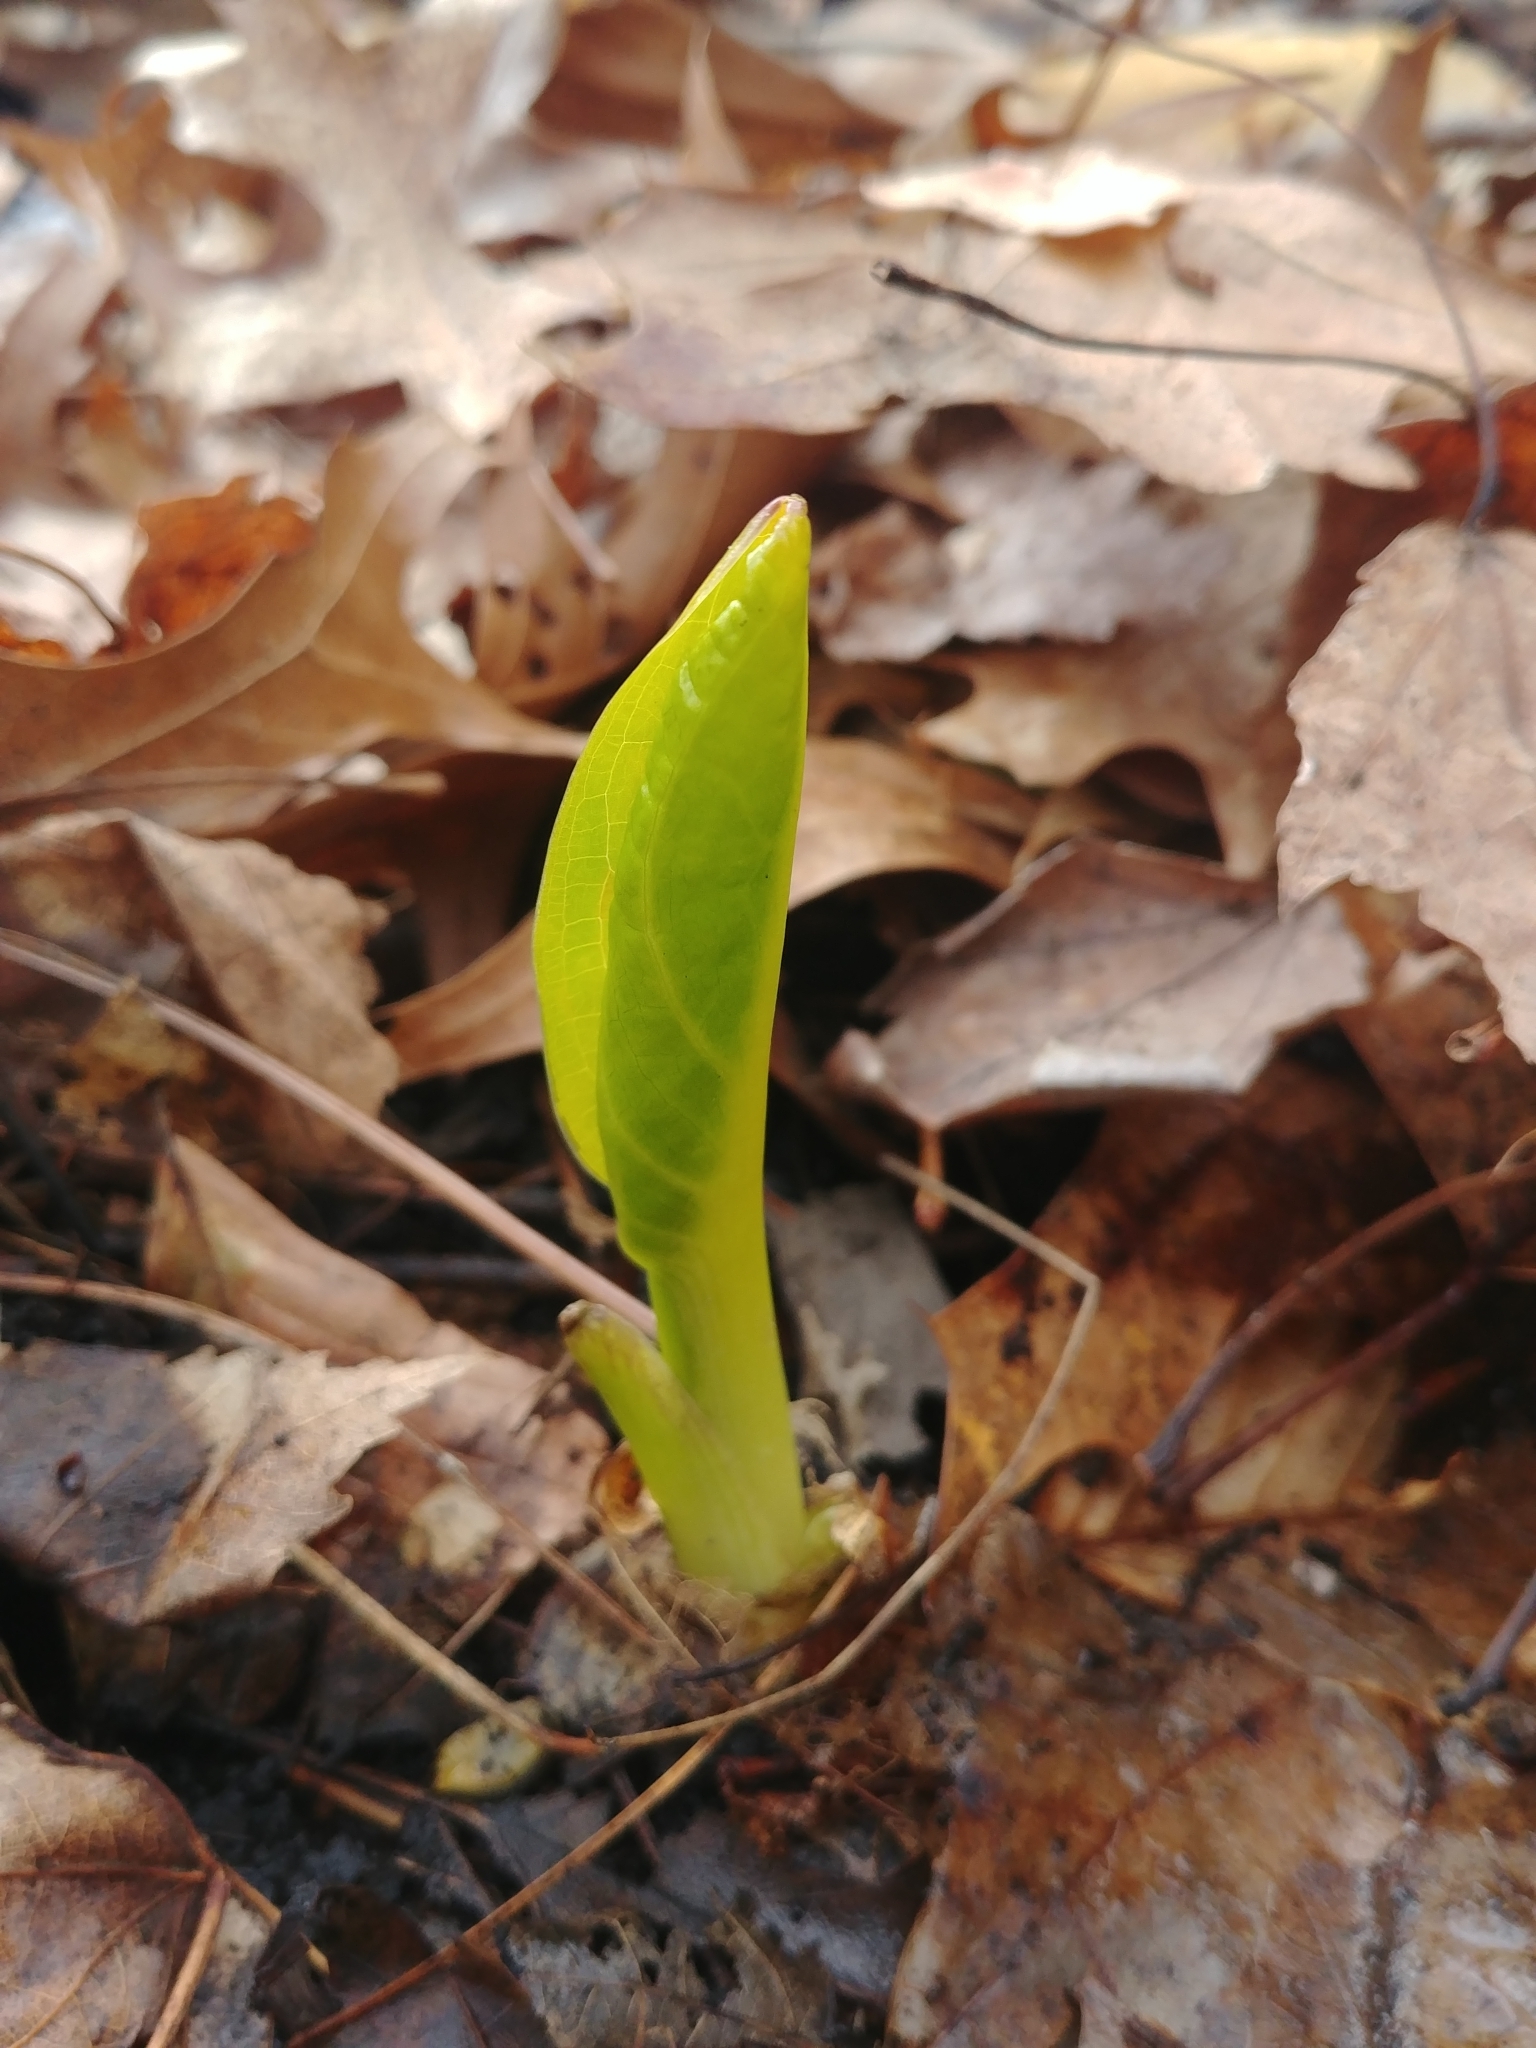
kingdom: Plantae
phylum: Tracheophyta
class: Liliopsida
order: Alismatales
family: Araceae
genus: Symplocarpus
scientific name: Symplocarpus foetidus
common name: Eastern skunk cabbage
